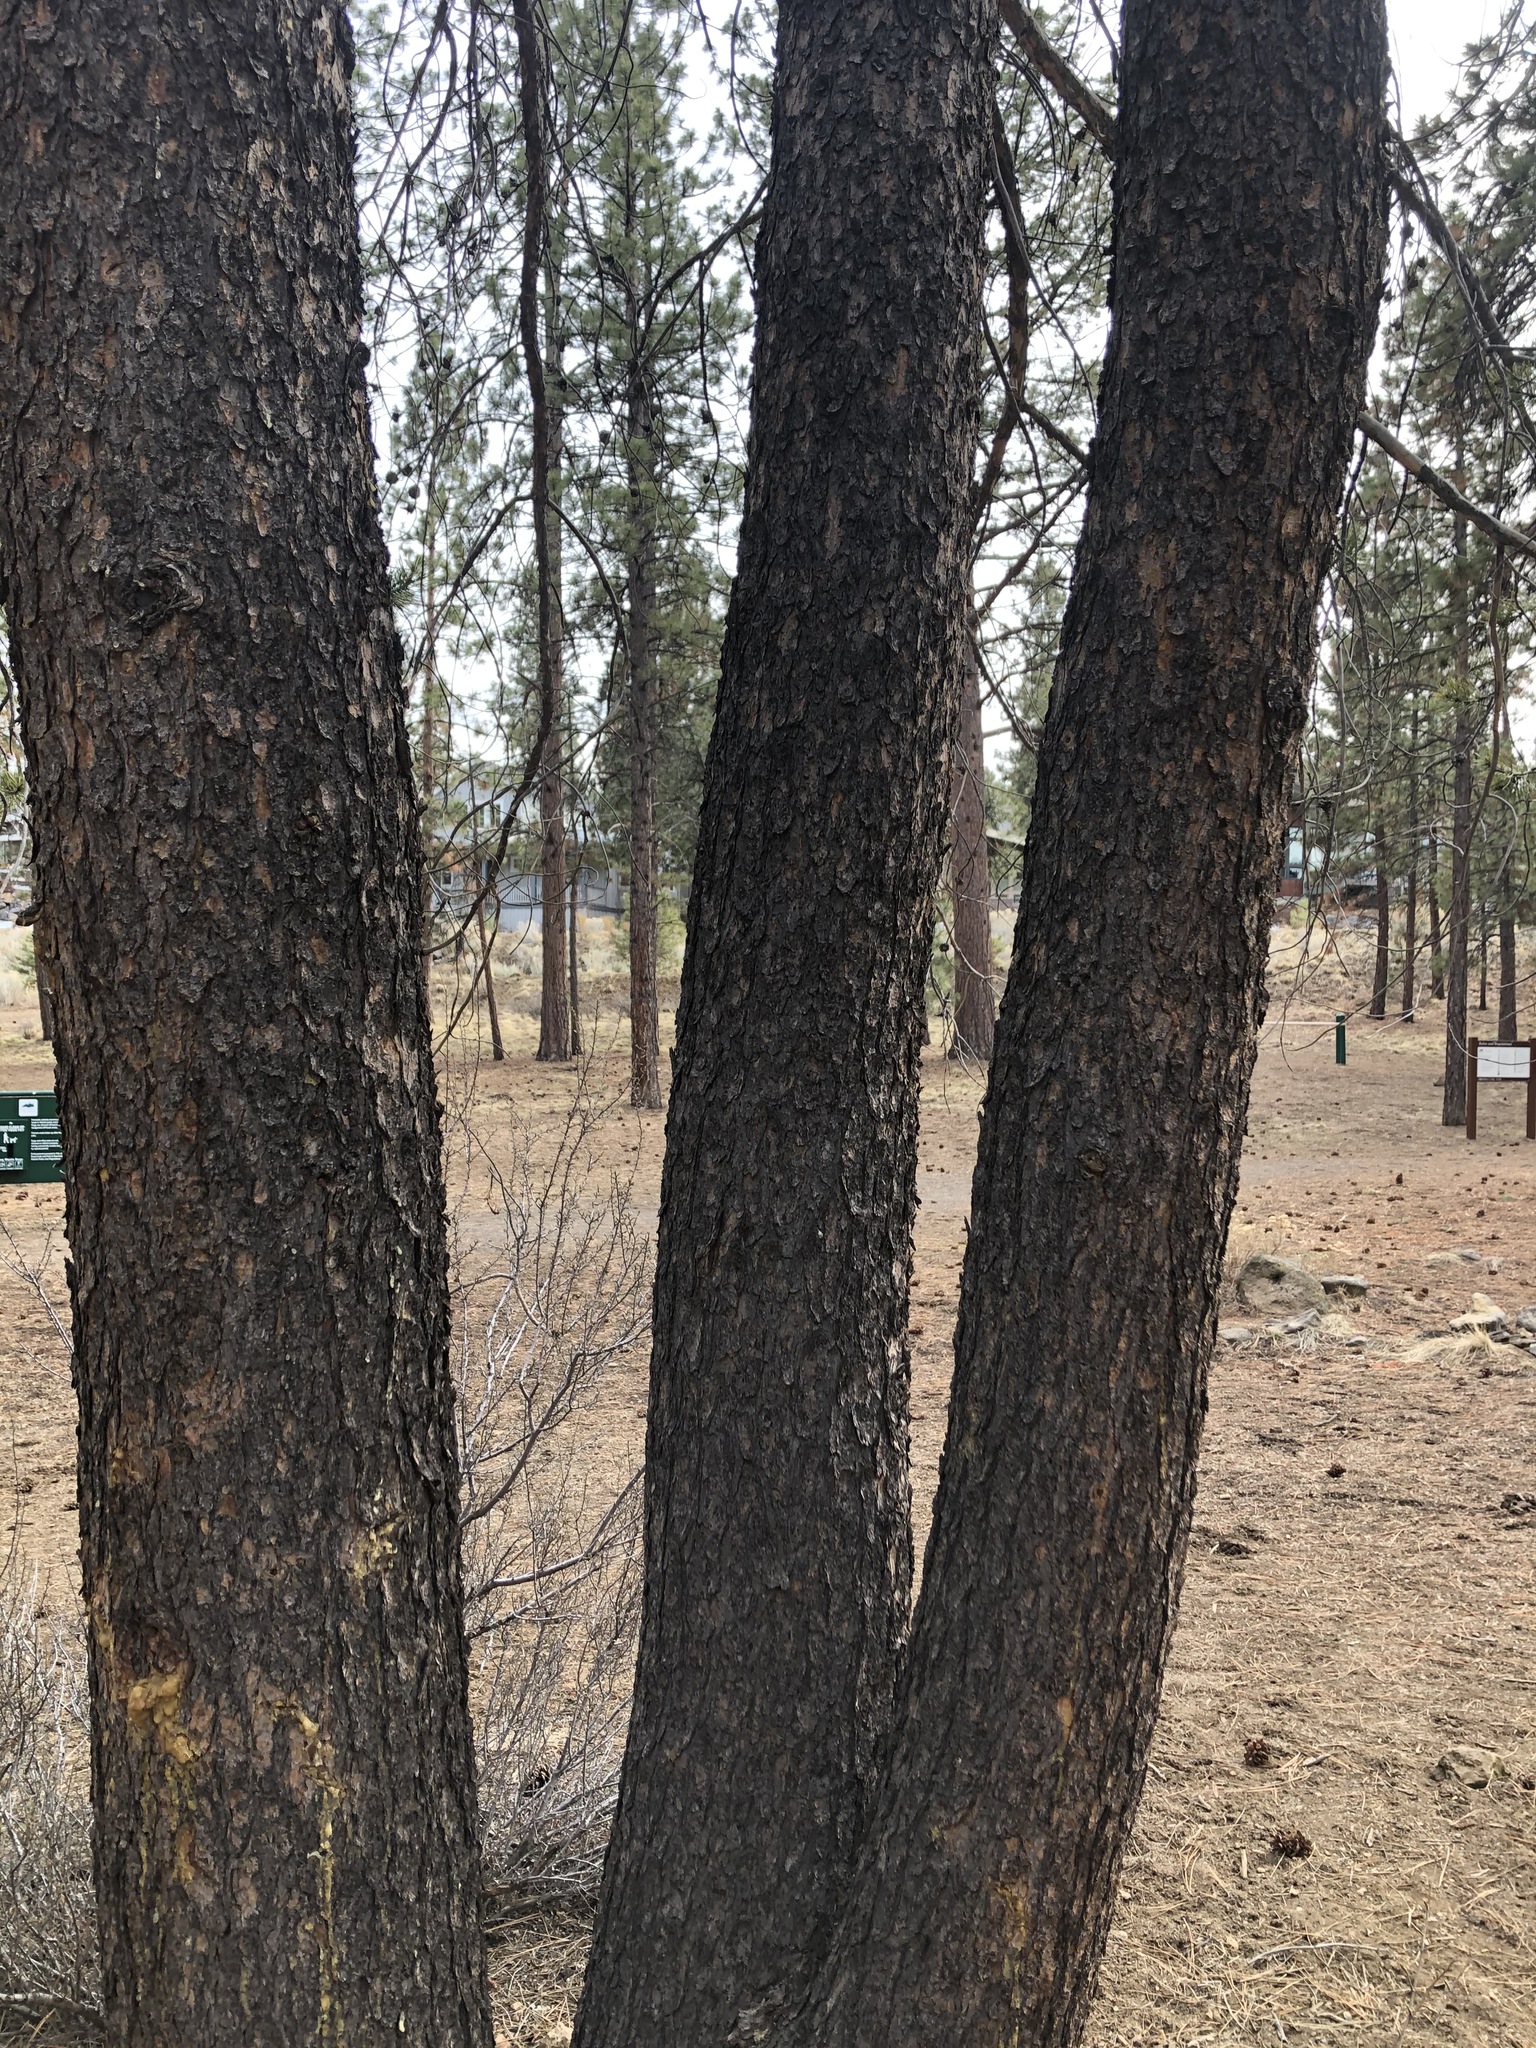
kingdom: Plantae
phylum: Tracheophyta
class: Pinopsida
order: Pinales
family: Pinaceae
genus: Pinus
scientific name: Pinus contorta
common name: Lodgepole pine
